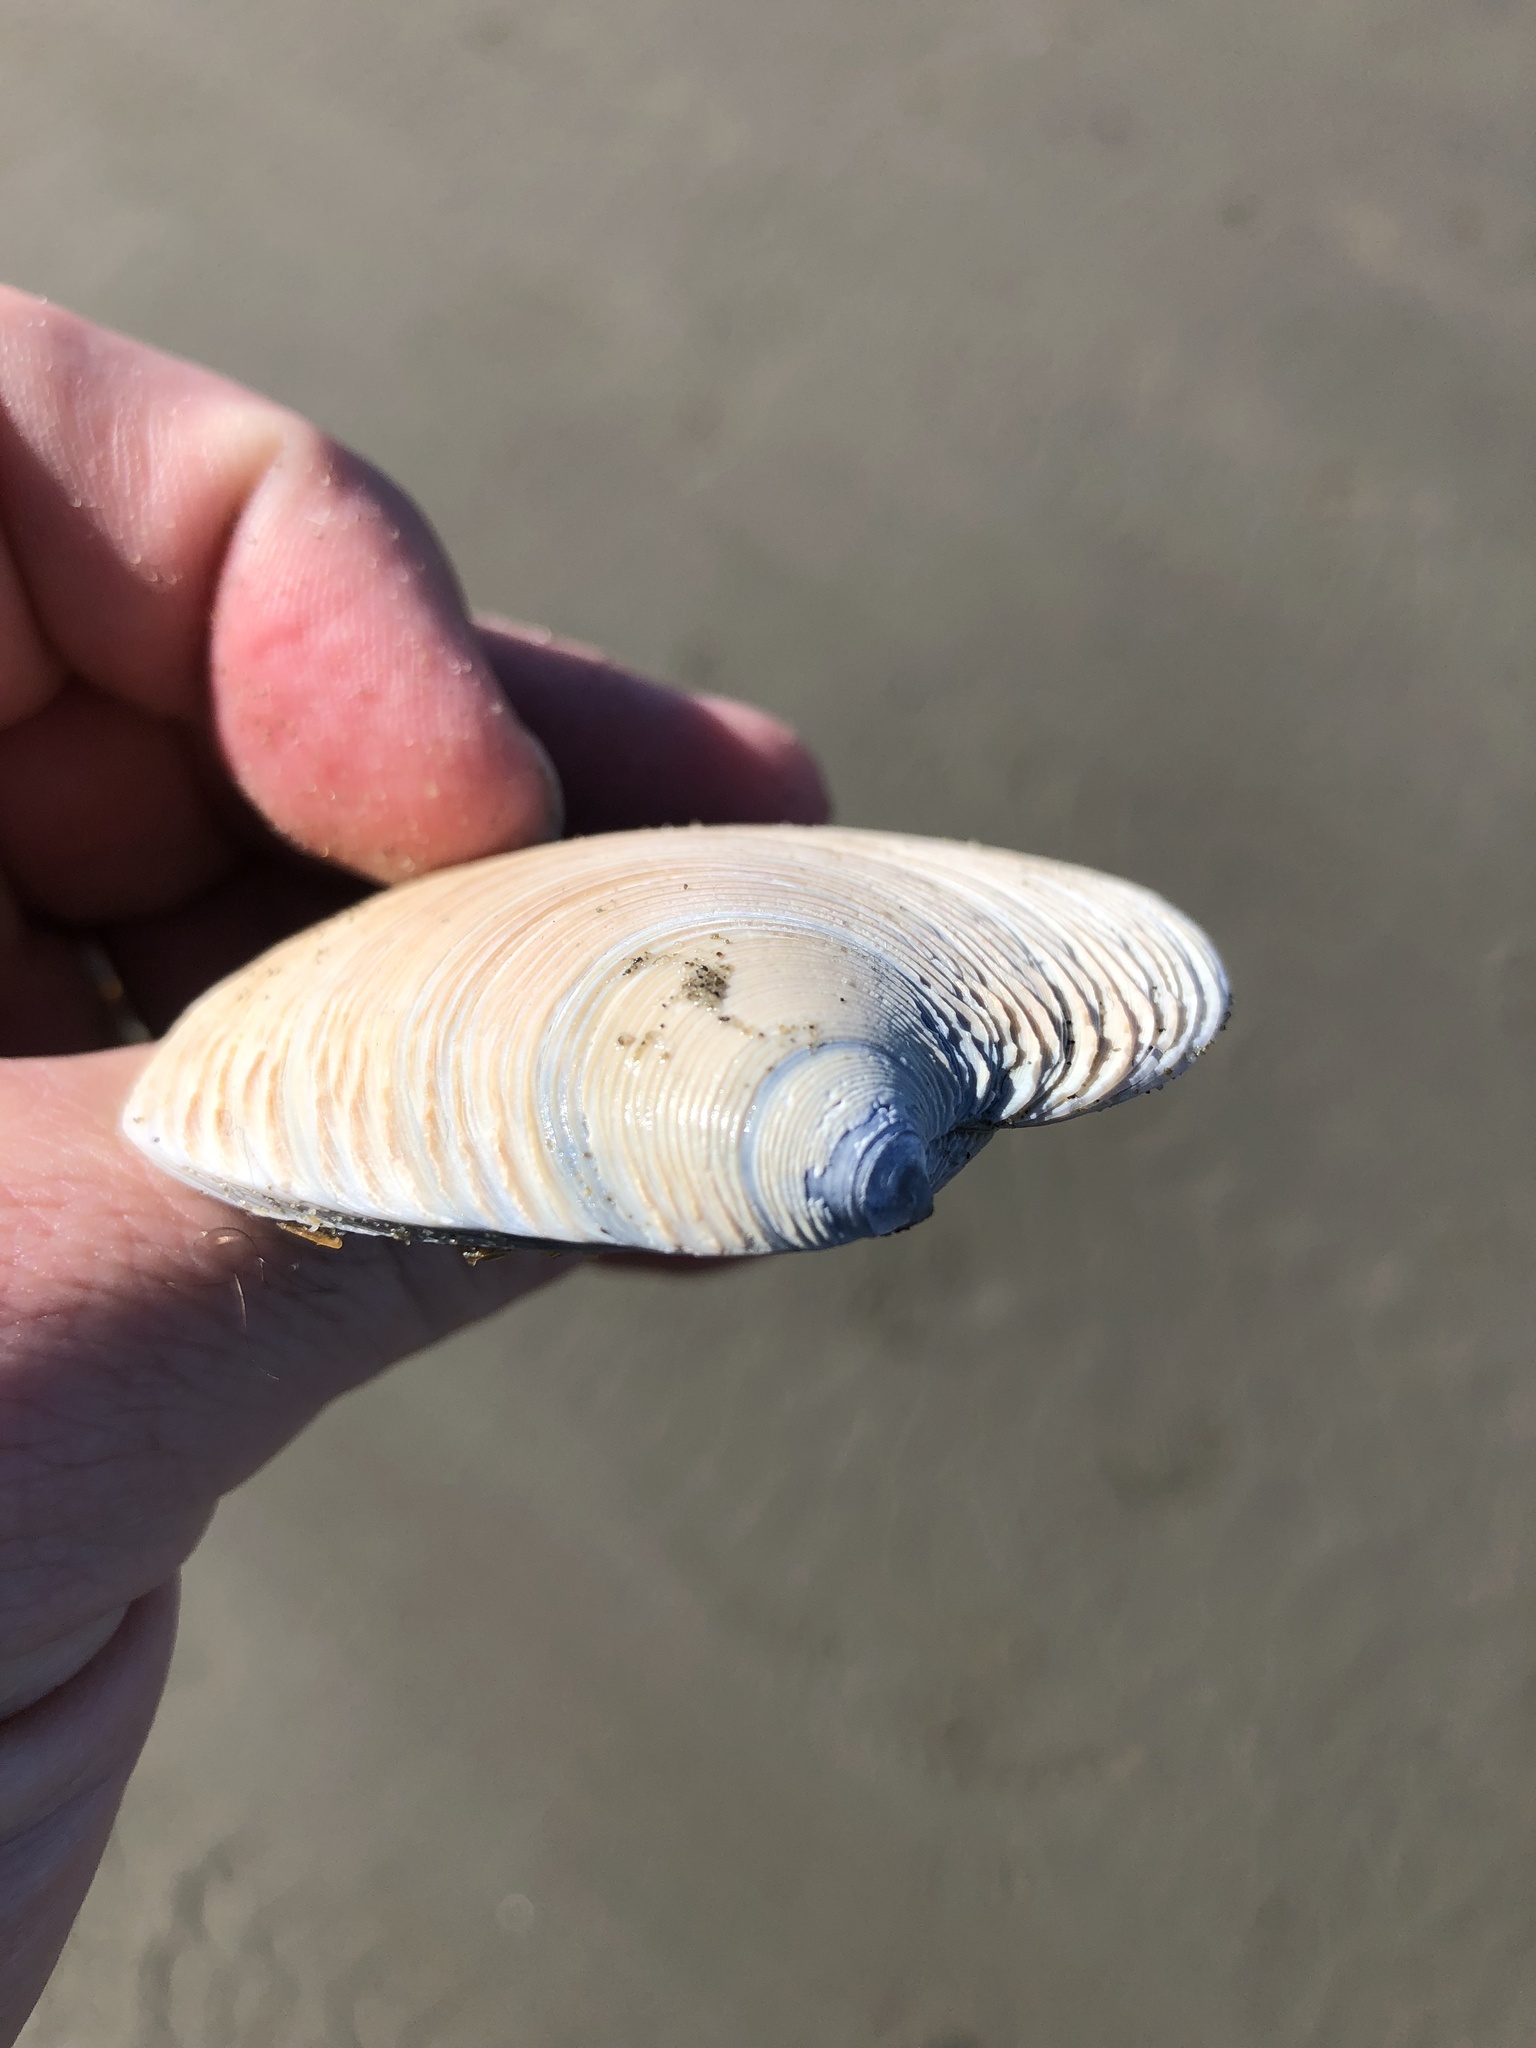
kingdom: Animalia
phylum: Mollusca
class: Bivalvia
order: Venerida
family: Veneridae
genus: Dosinia
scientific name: Dosinia anus
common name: Old-woman dosinia
